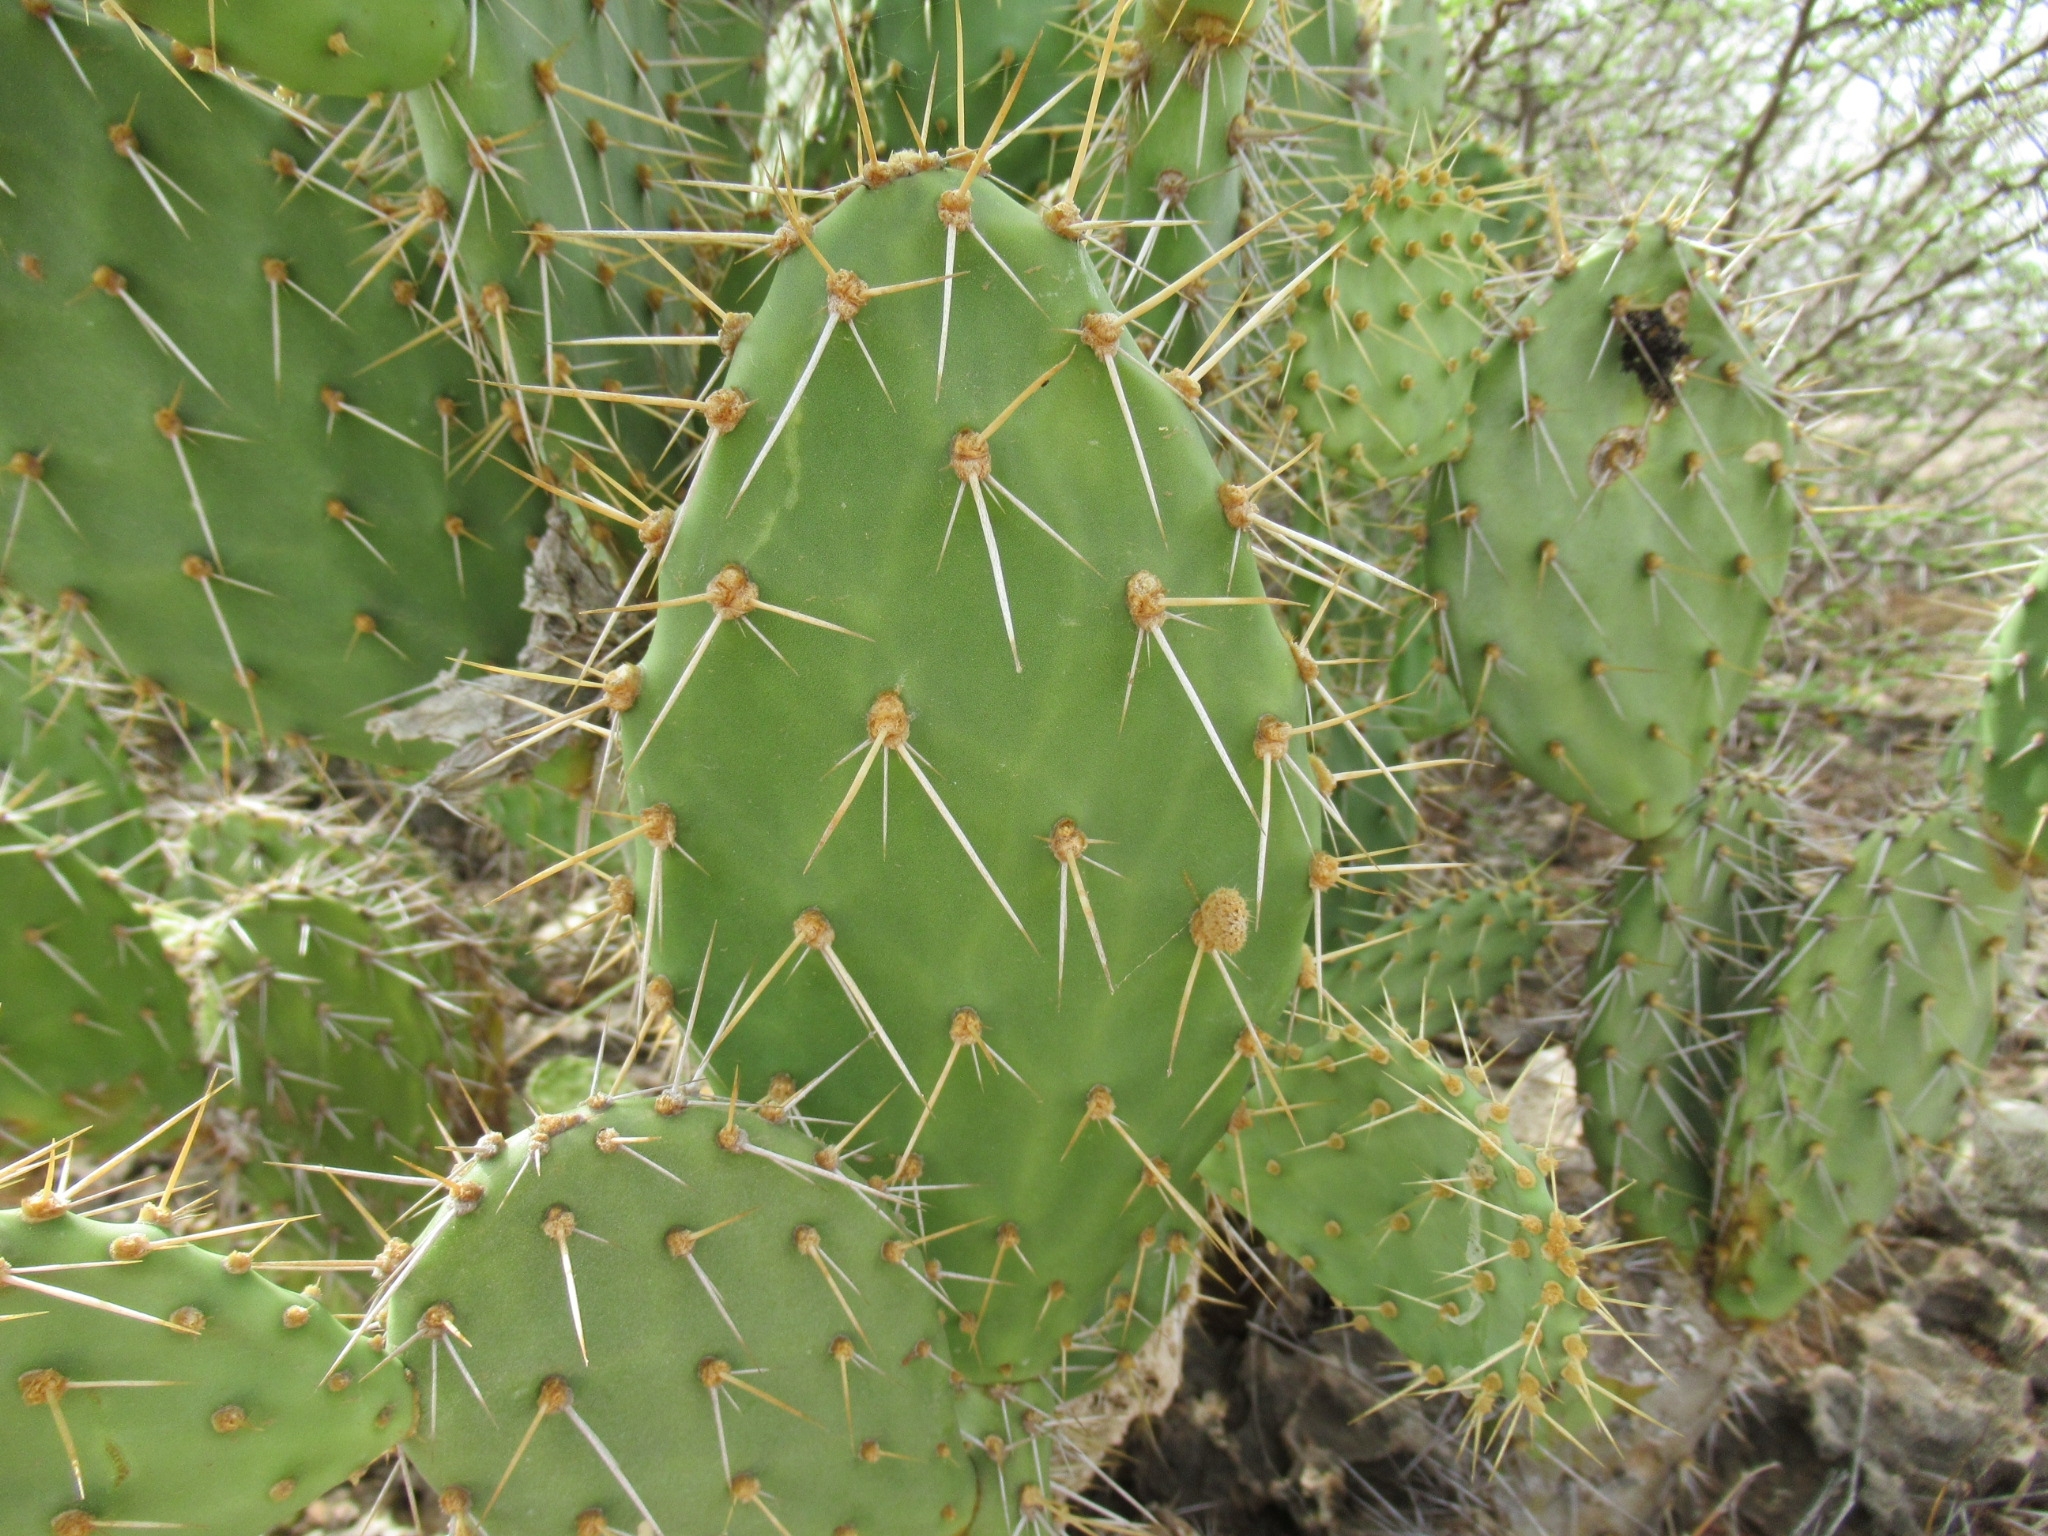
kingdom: Plantae
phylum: Tracheophyta
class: Magnoliopsida
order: Caryophyllales
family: Cactaceae
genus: Opuntia
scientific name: Opuntia caracassana
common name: Common prickly pear
